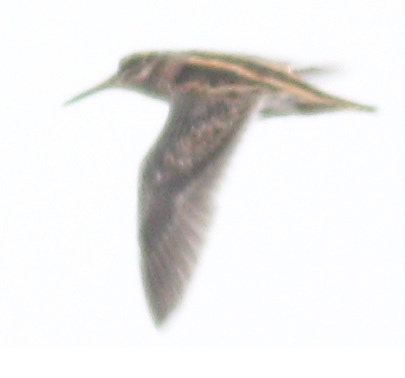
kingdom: Animalia
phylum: Chordata
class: Aves
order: Charadriiformes
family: Scolopacidae
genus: Lymnocryptes
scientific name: Lymnocryptes minimus
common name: Jack snipe
